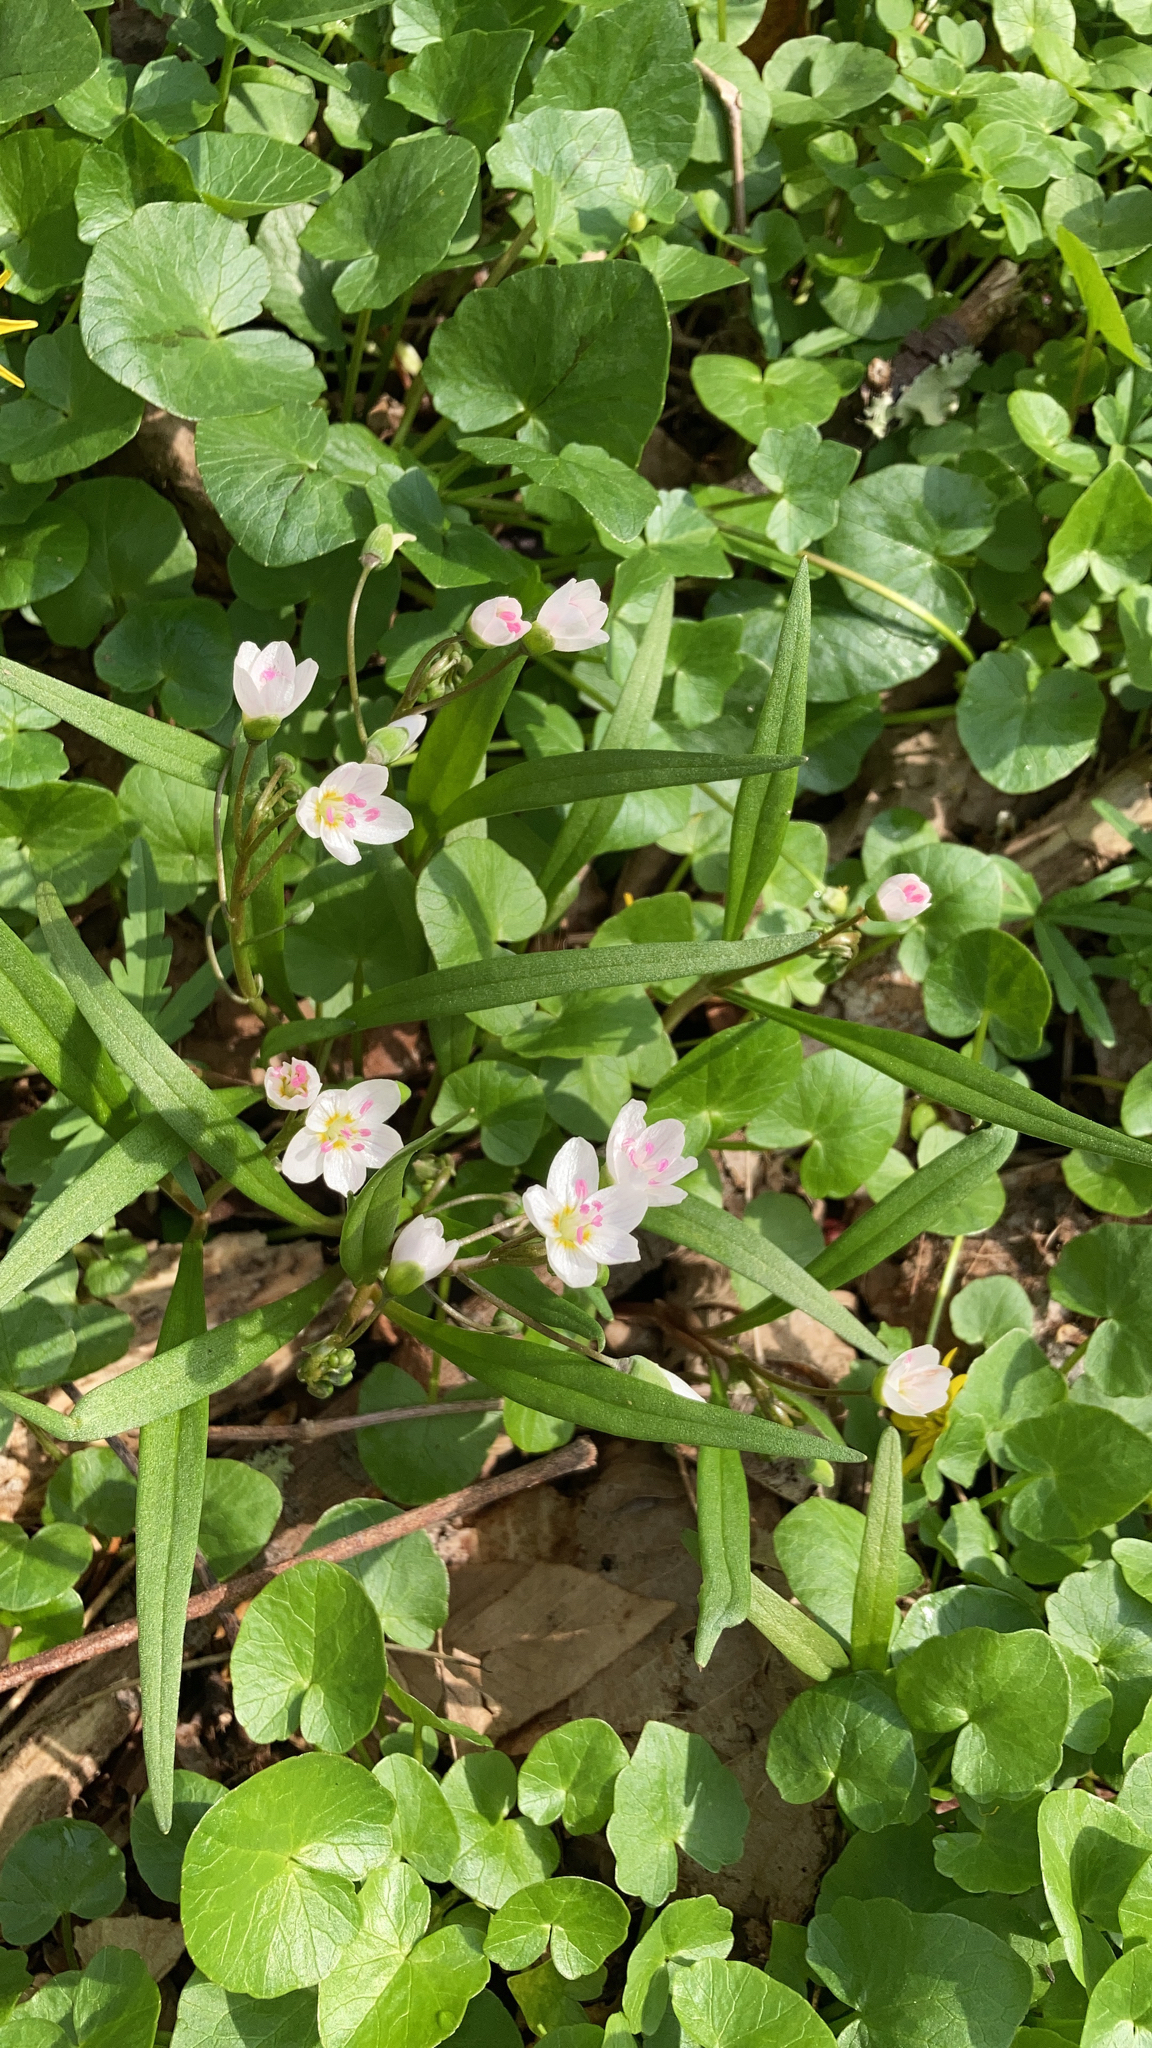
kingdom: Plantae
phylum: Tracheophyta
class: Magnoliopsida
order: Caryophyllales
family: Montiaceae
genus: Claytonia
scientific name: Claytonia virginica
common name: Virginia springbeauty
